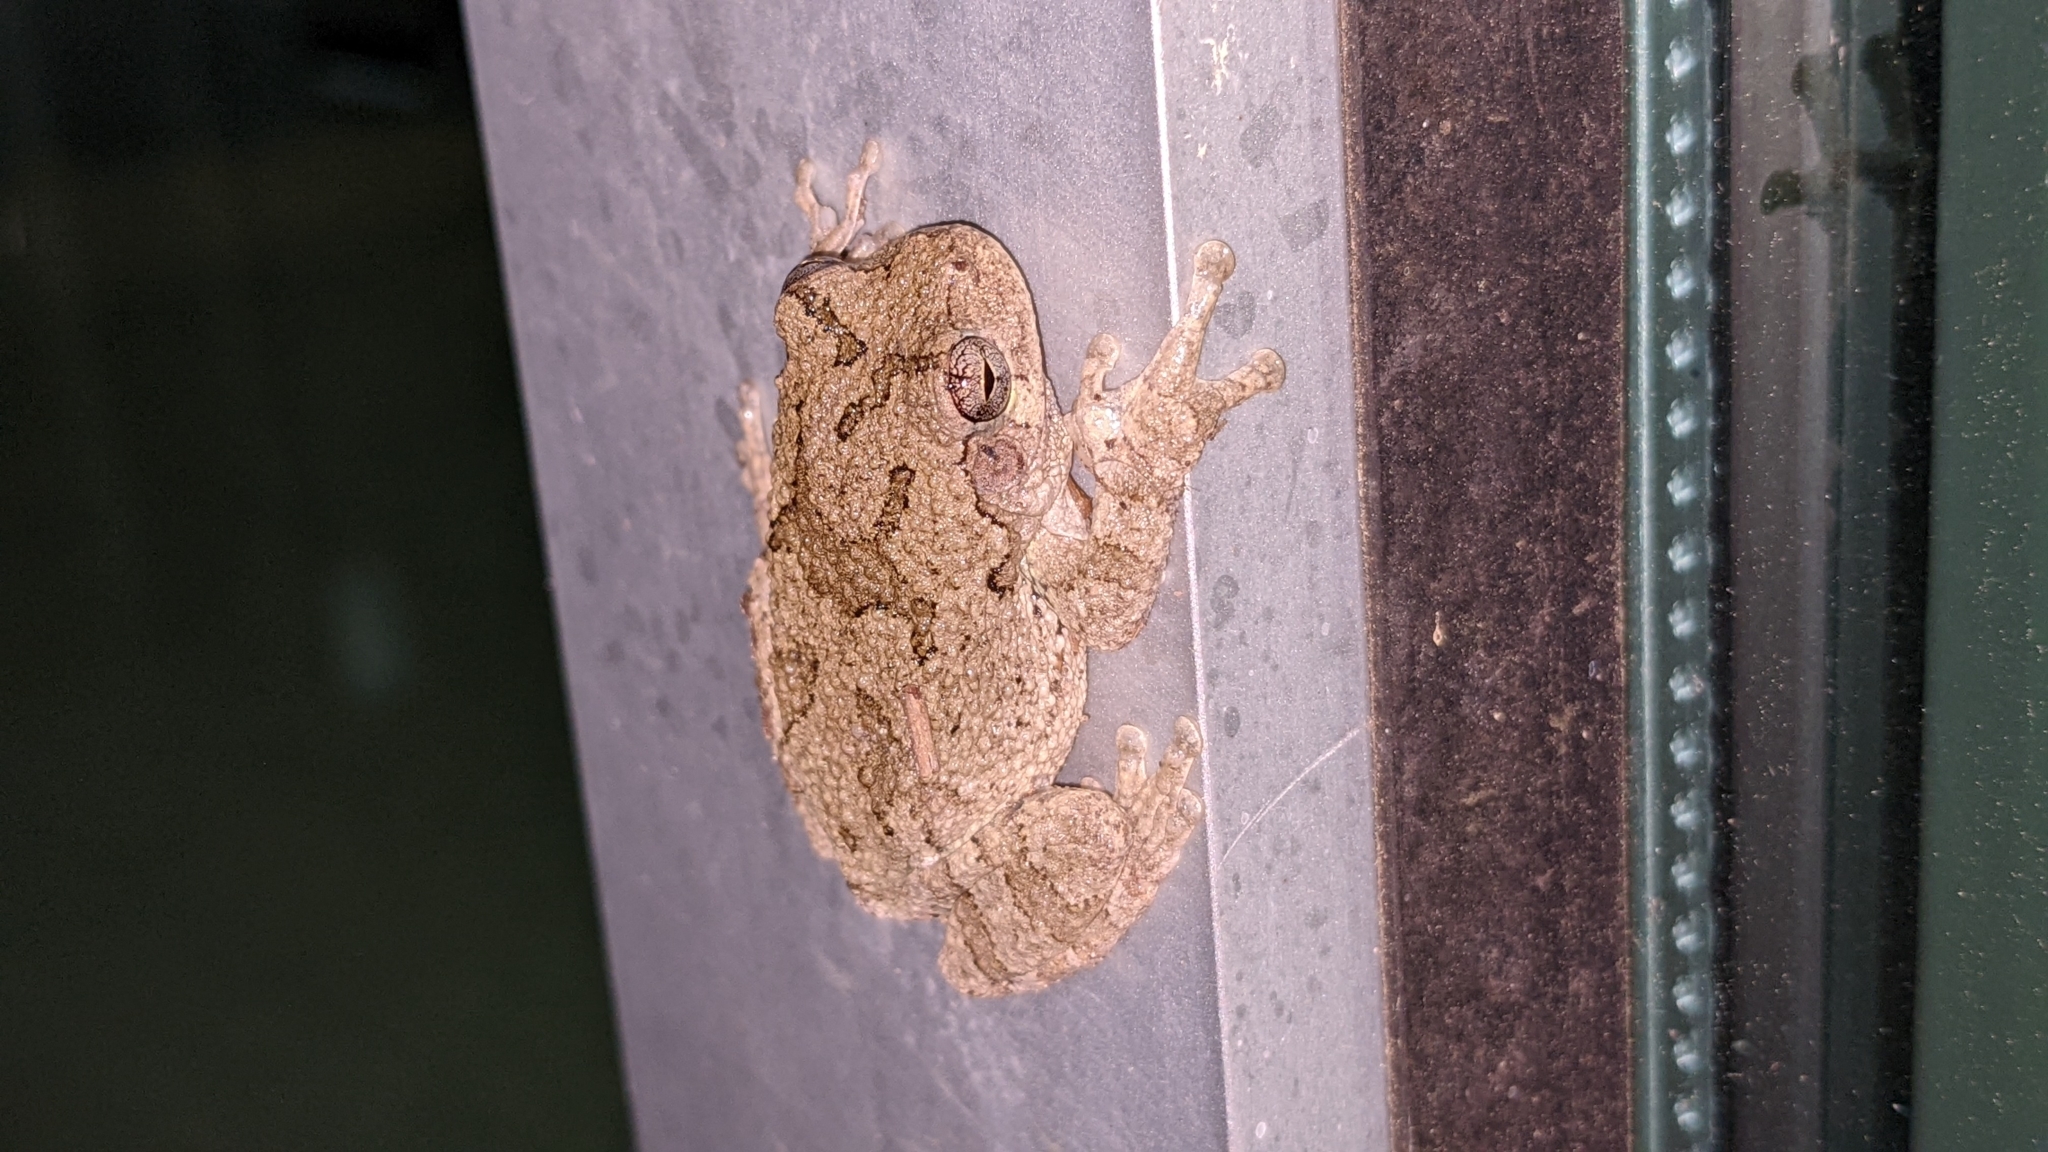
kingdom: Animalia
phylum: Chordata
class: Amphibia
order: Anura
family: Hylidae
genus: Hyla
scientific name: Hyla
